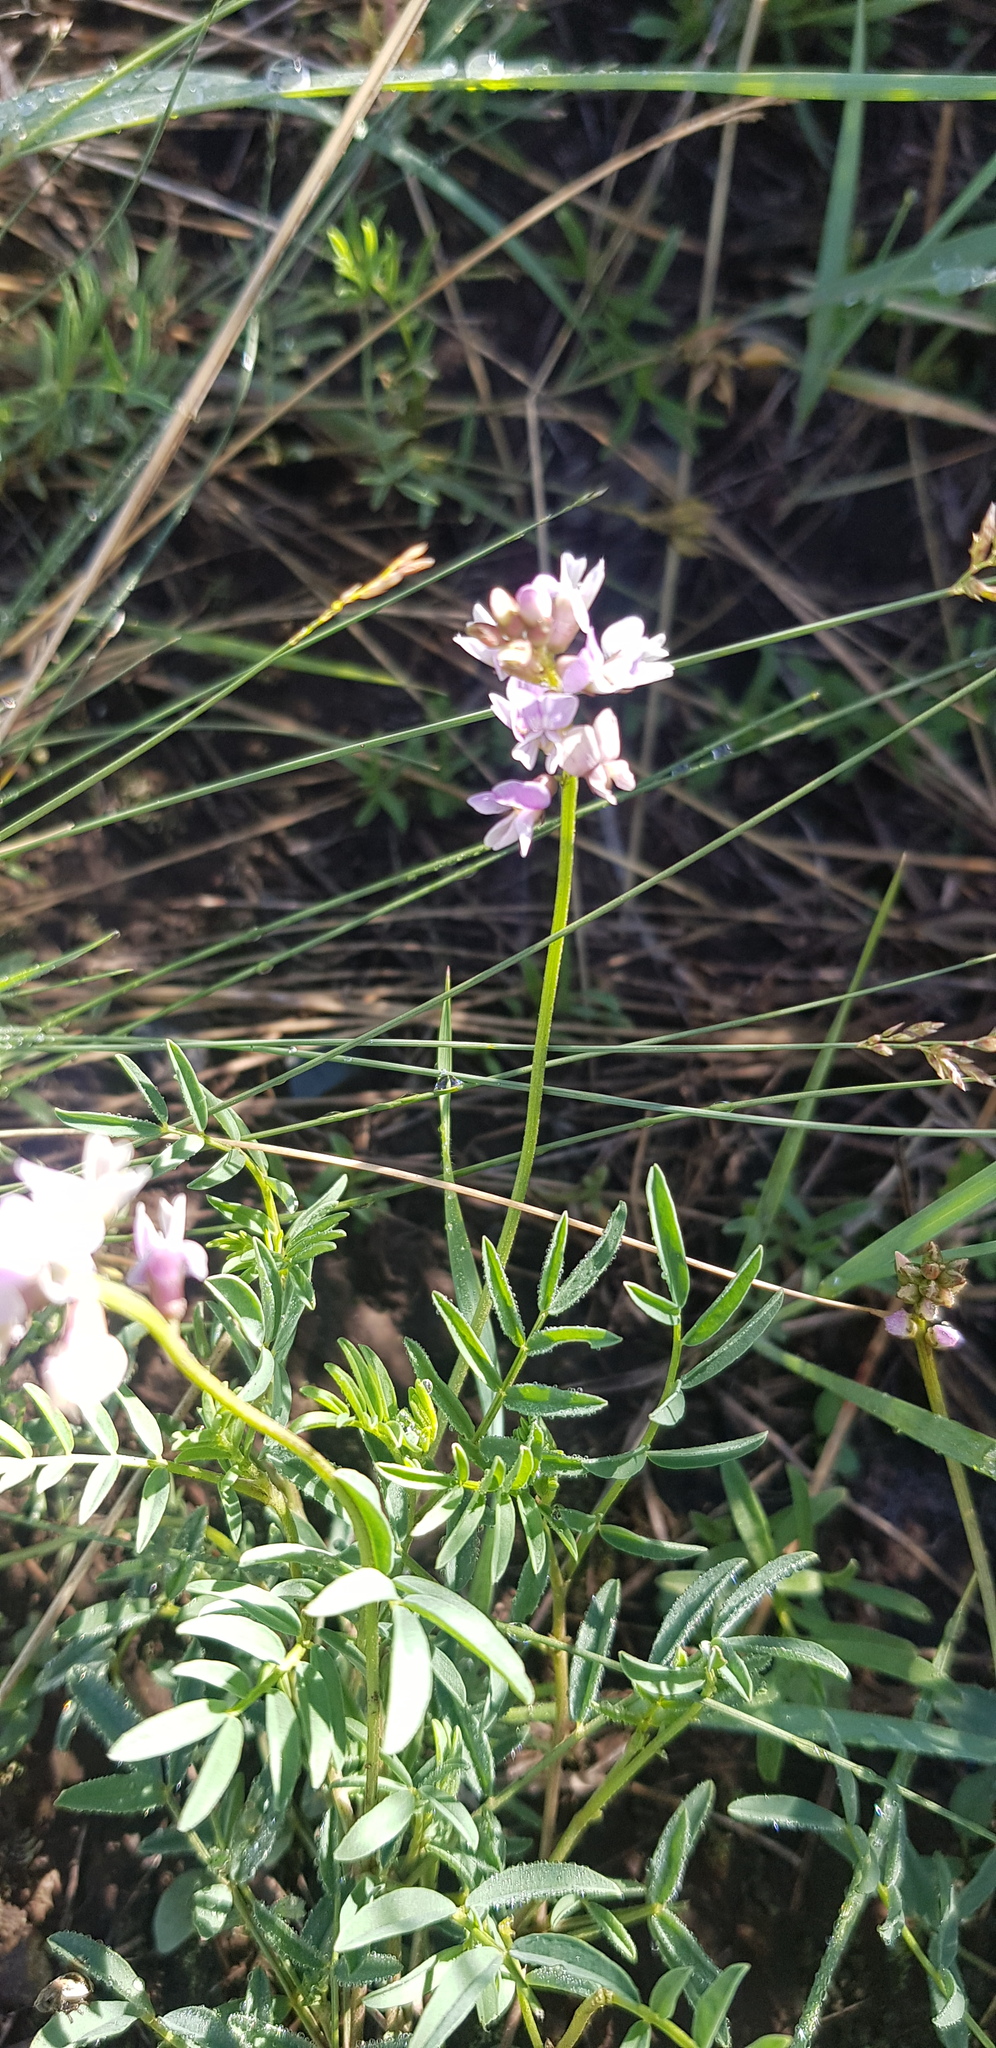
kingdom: Plantae
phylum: Tracheophyta
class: Magnoliopsida
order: Fabales
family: Fabaceae
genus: Astragalus
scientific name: Astragalus danicus
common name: Purple milk-vetch
